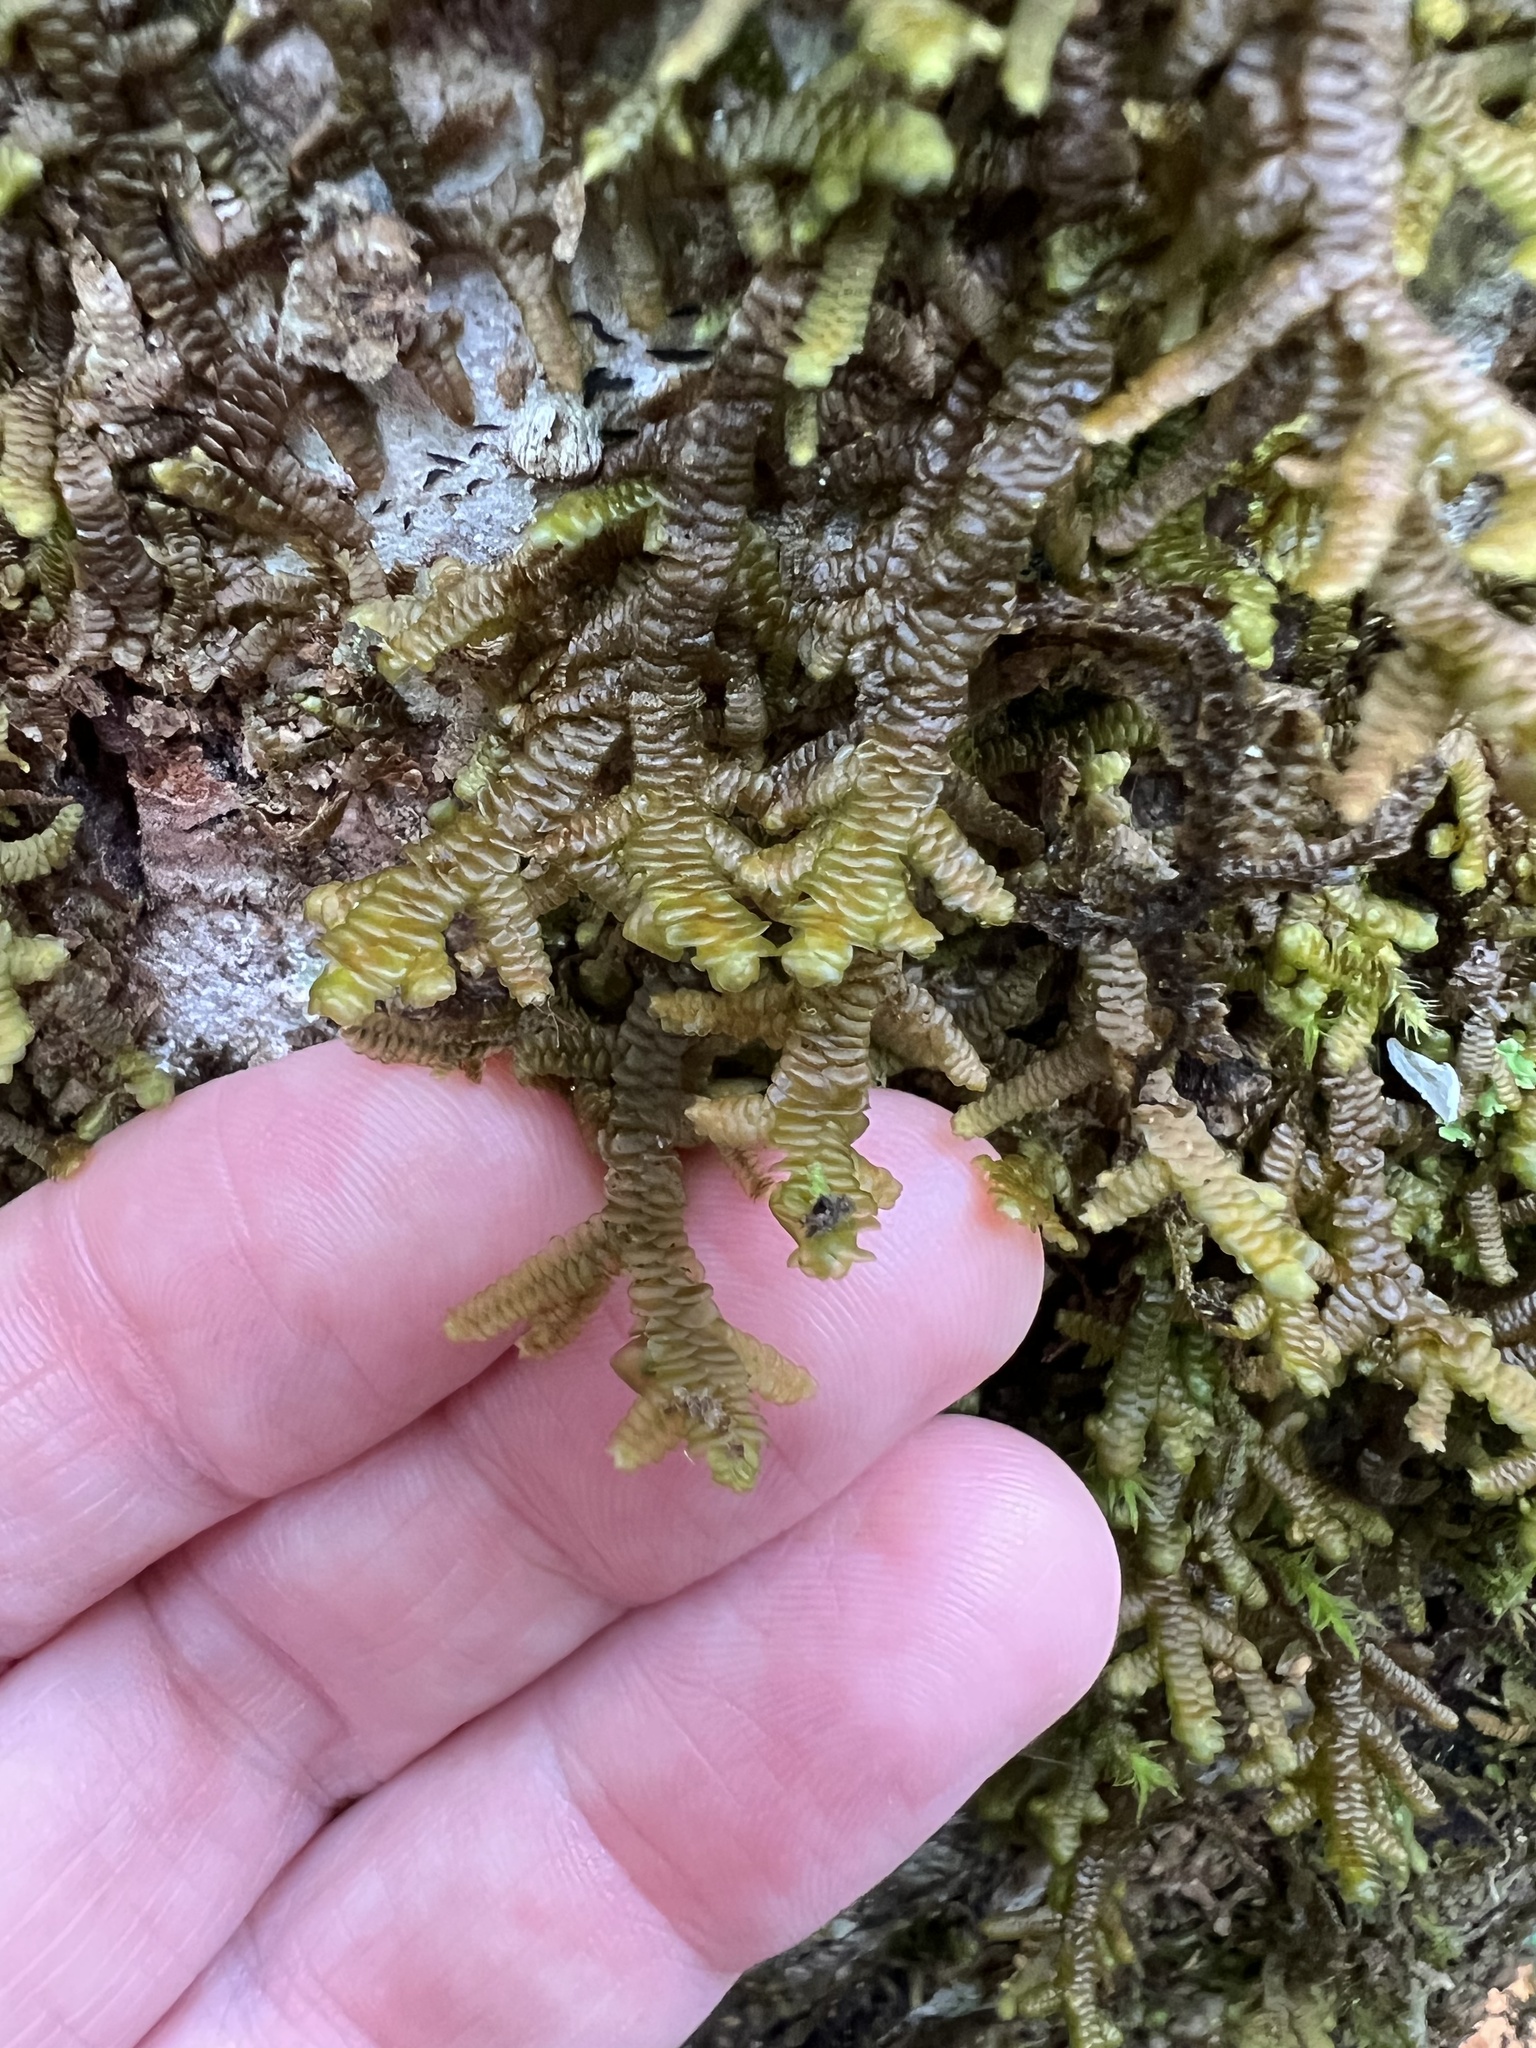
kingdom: Plantae
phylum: Marchantiophyta
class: Jungermanniopsida
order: Porellales
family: Porellaceae
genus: Porella
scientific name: Porella navicularis
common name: Tree ruffle liverwort
